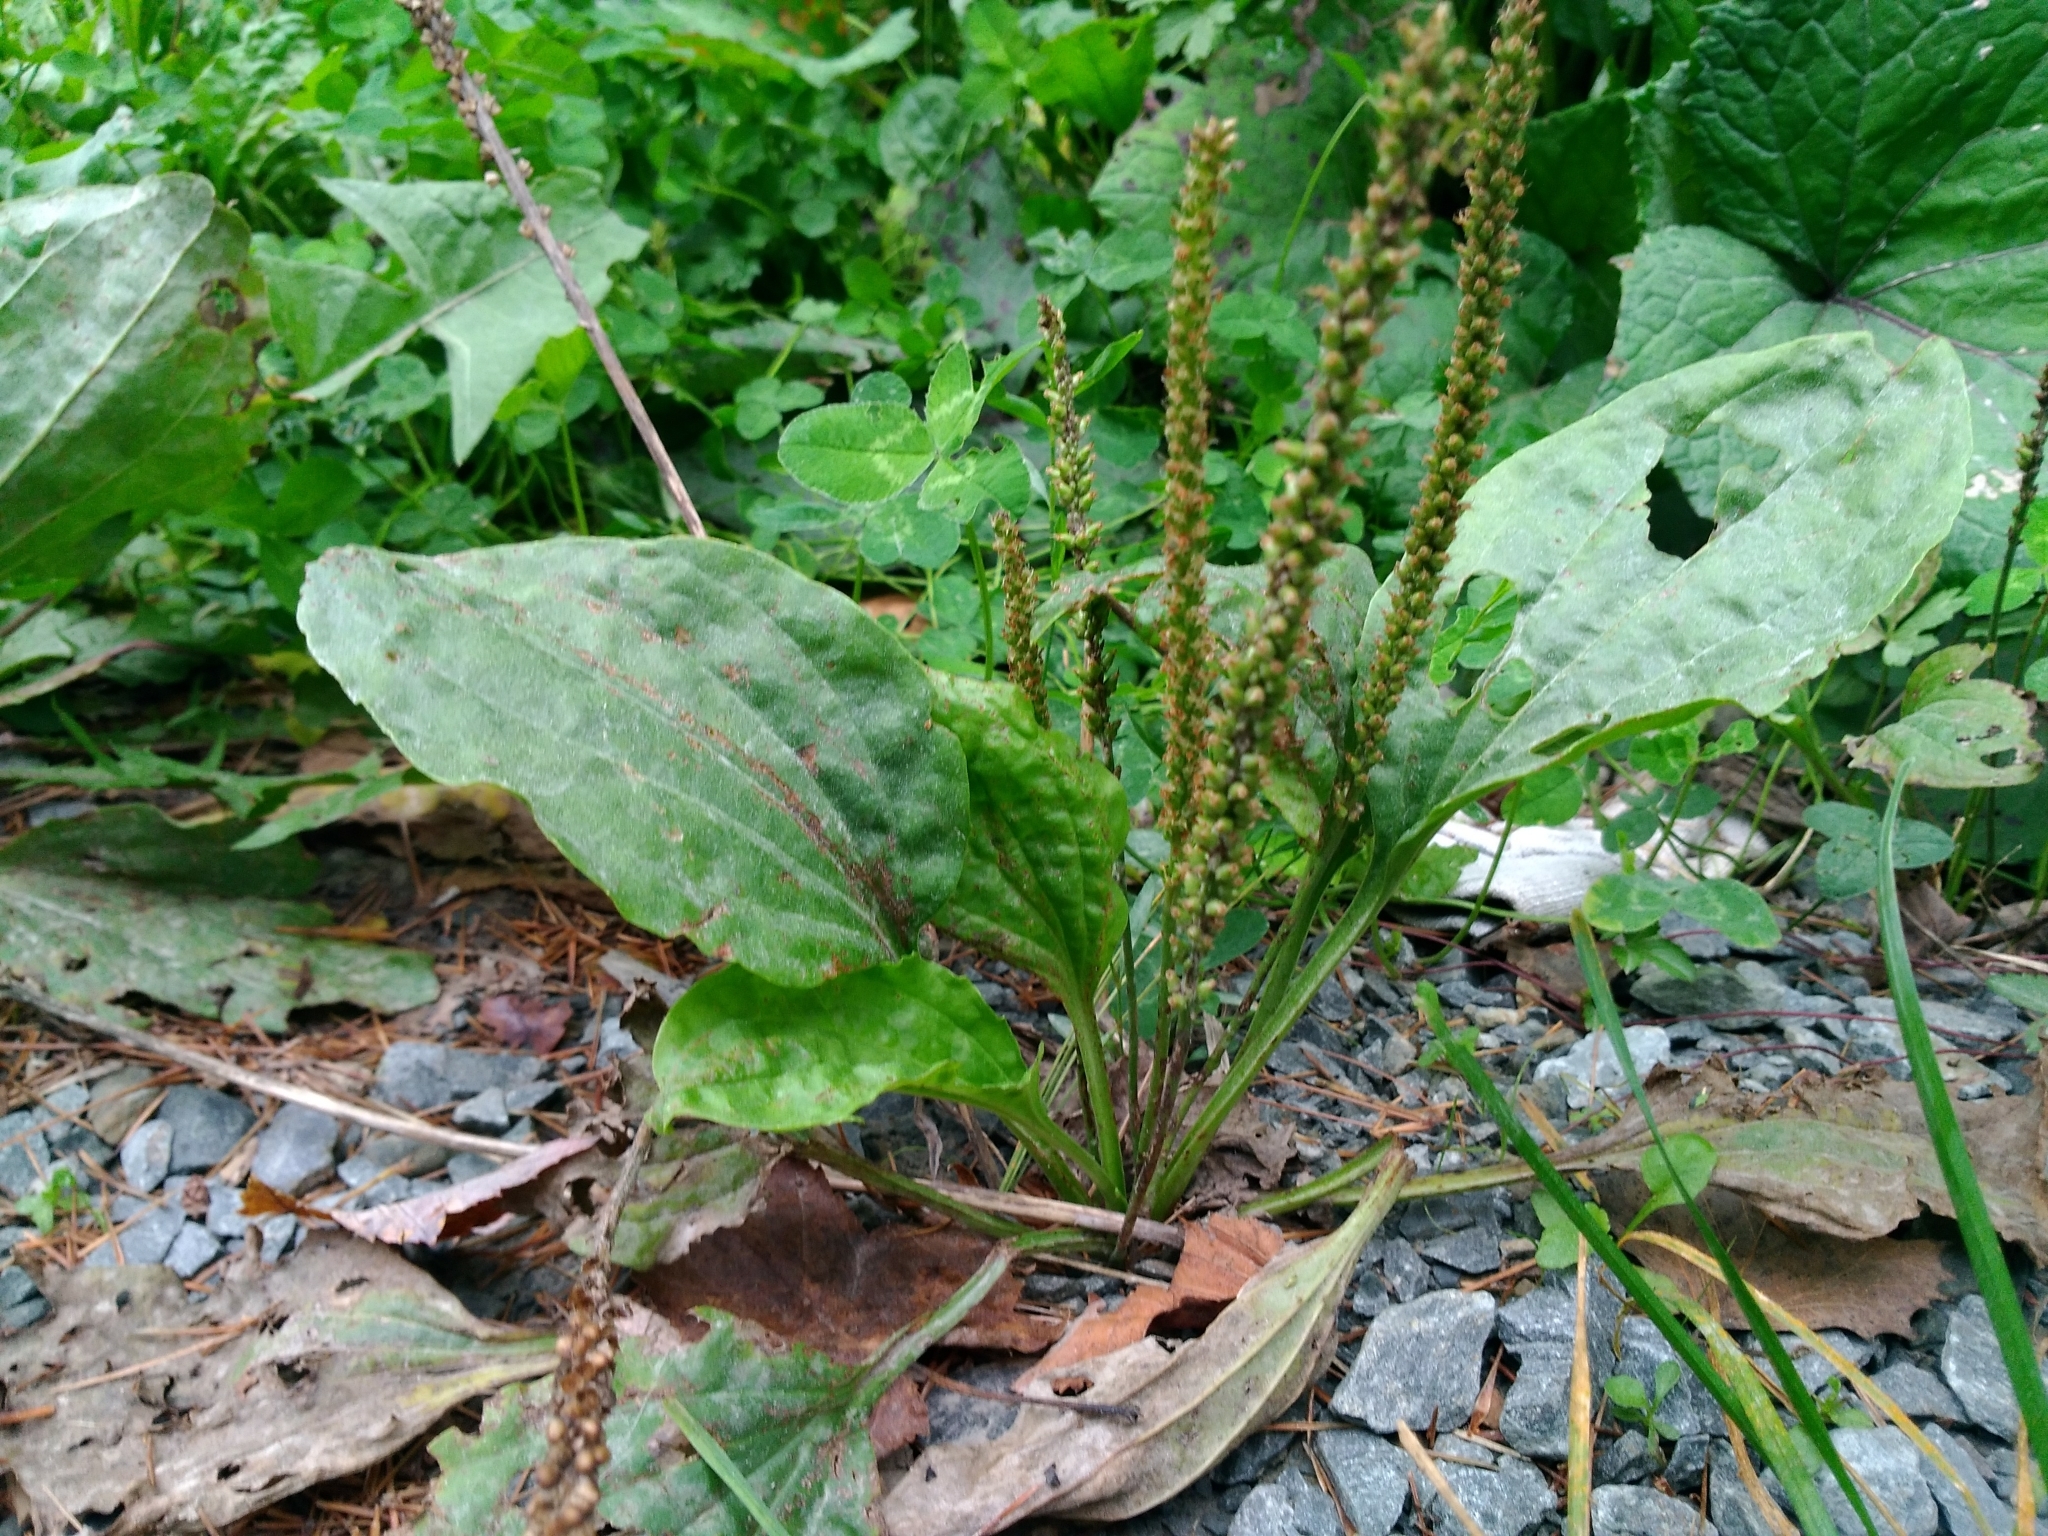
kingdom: Plantae
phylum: Tracheophyta
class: Magnoliopsida
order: Lamiales
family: Plantaginaceae
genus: Plantago
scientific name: Plantago major
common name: Common plantain
